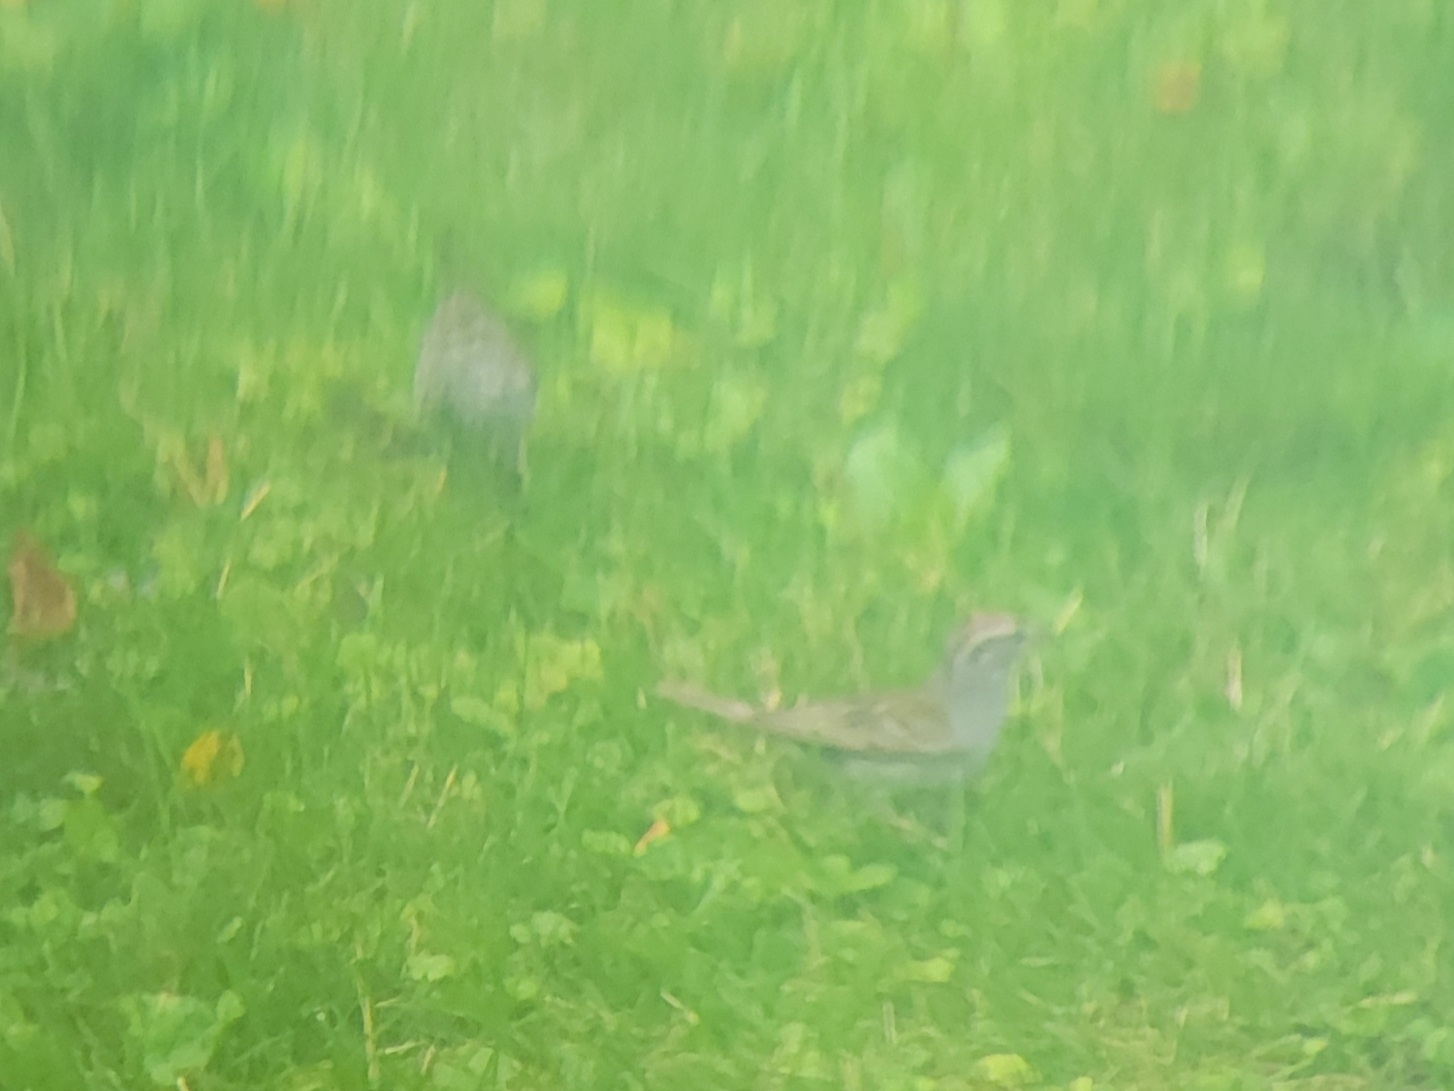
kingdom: Animalia
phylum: Chordata
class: Aves
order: Passeriformes
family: Passerellidae
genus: Spizella
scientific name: Spizella passerina
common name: Chipping sparrow
